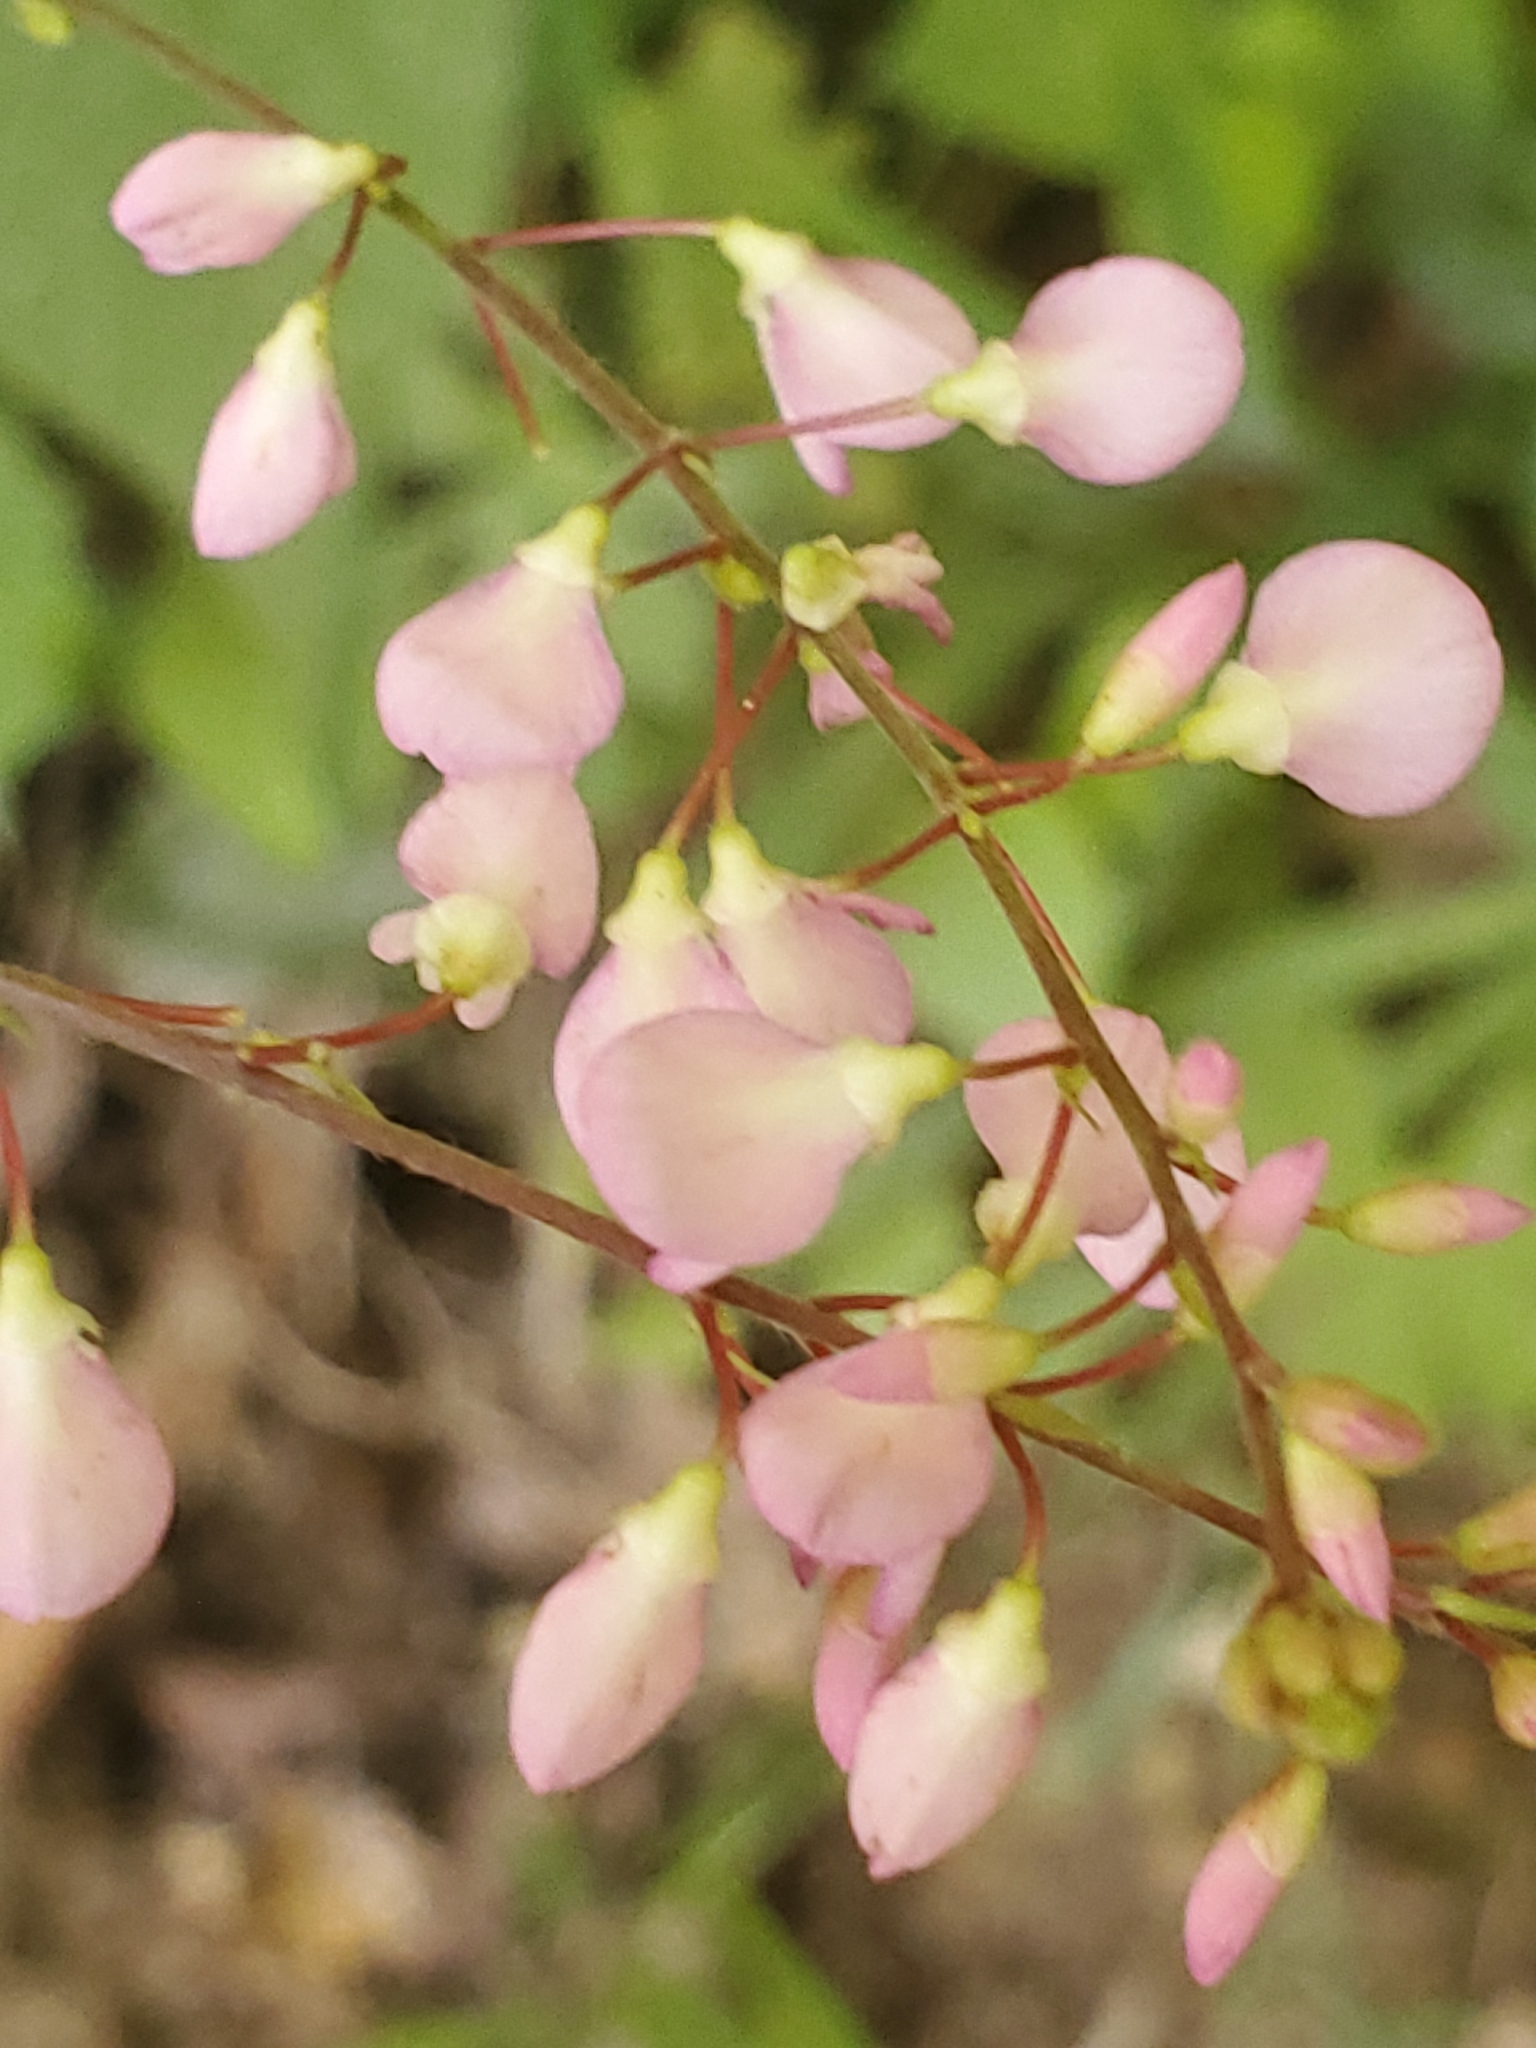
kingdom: Plantae
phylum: Tracheophyta
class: Magnoliopsida
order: Fabales
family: Fabaceae
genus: Hylodesmum
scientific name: Hylodesmum glutinosum
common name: Clustered-leaved tick-trefoil
